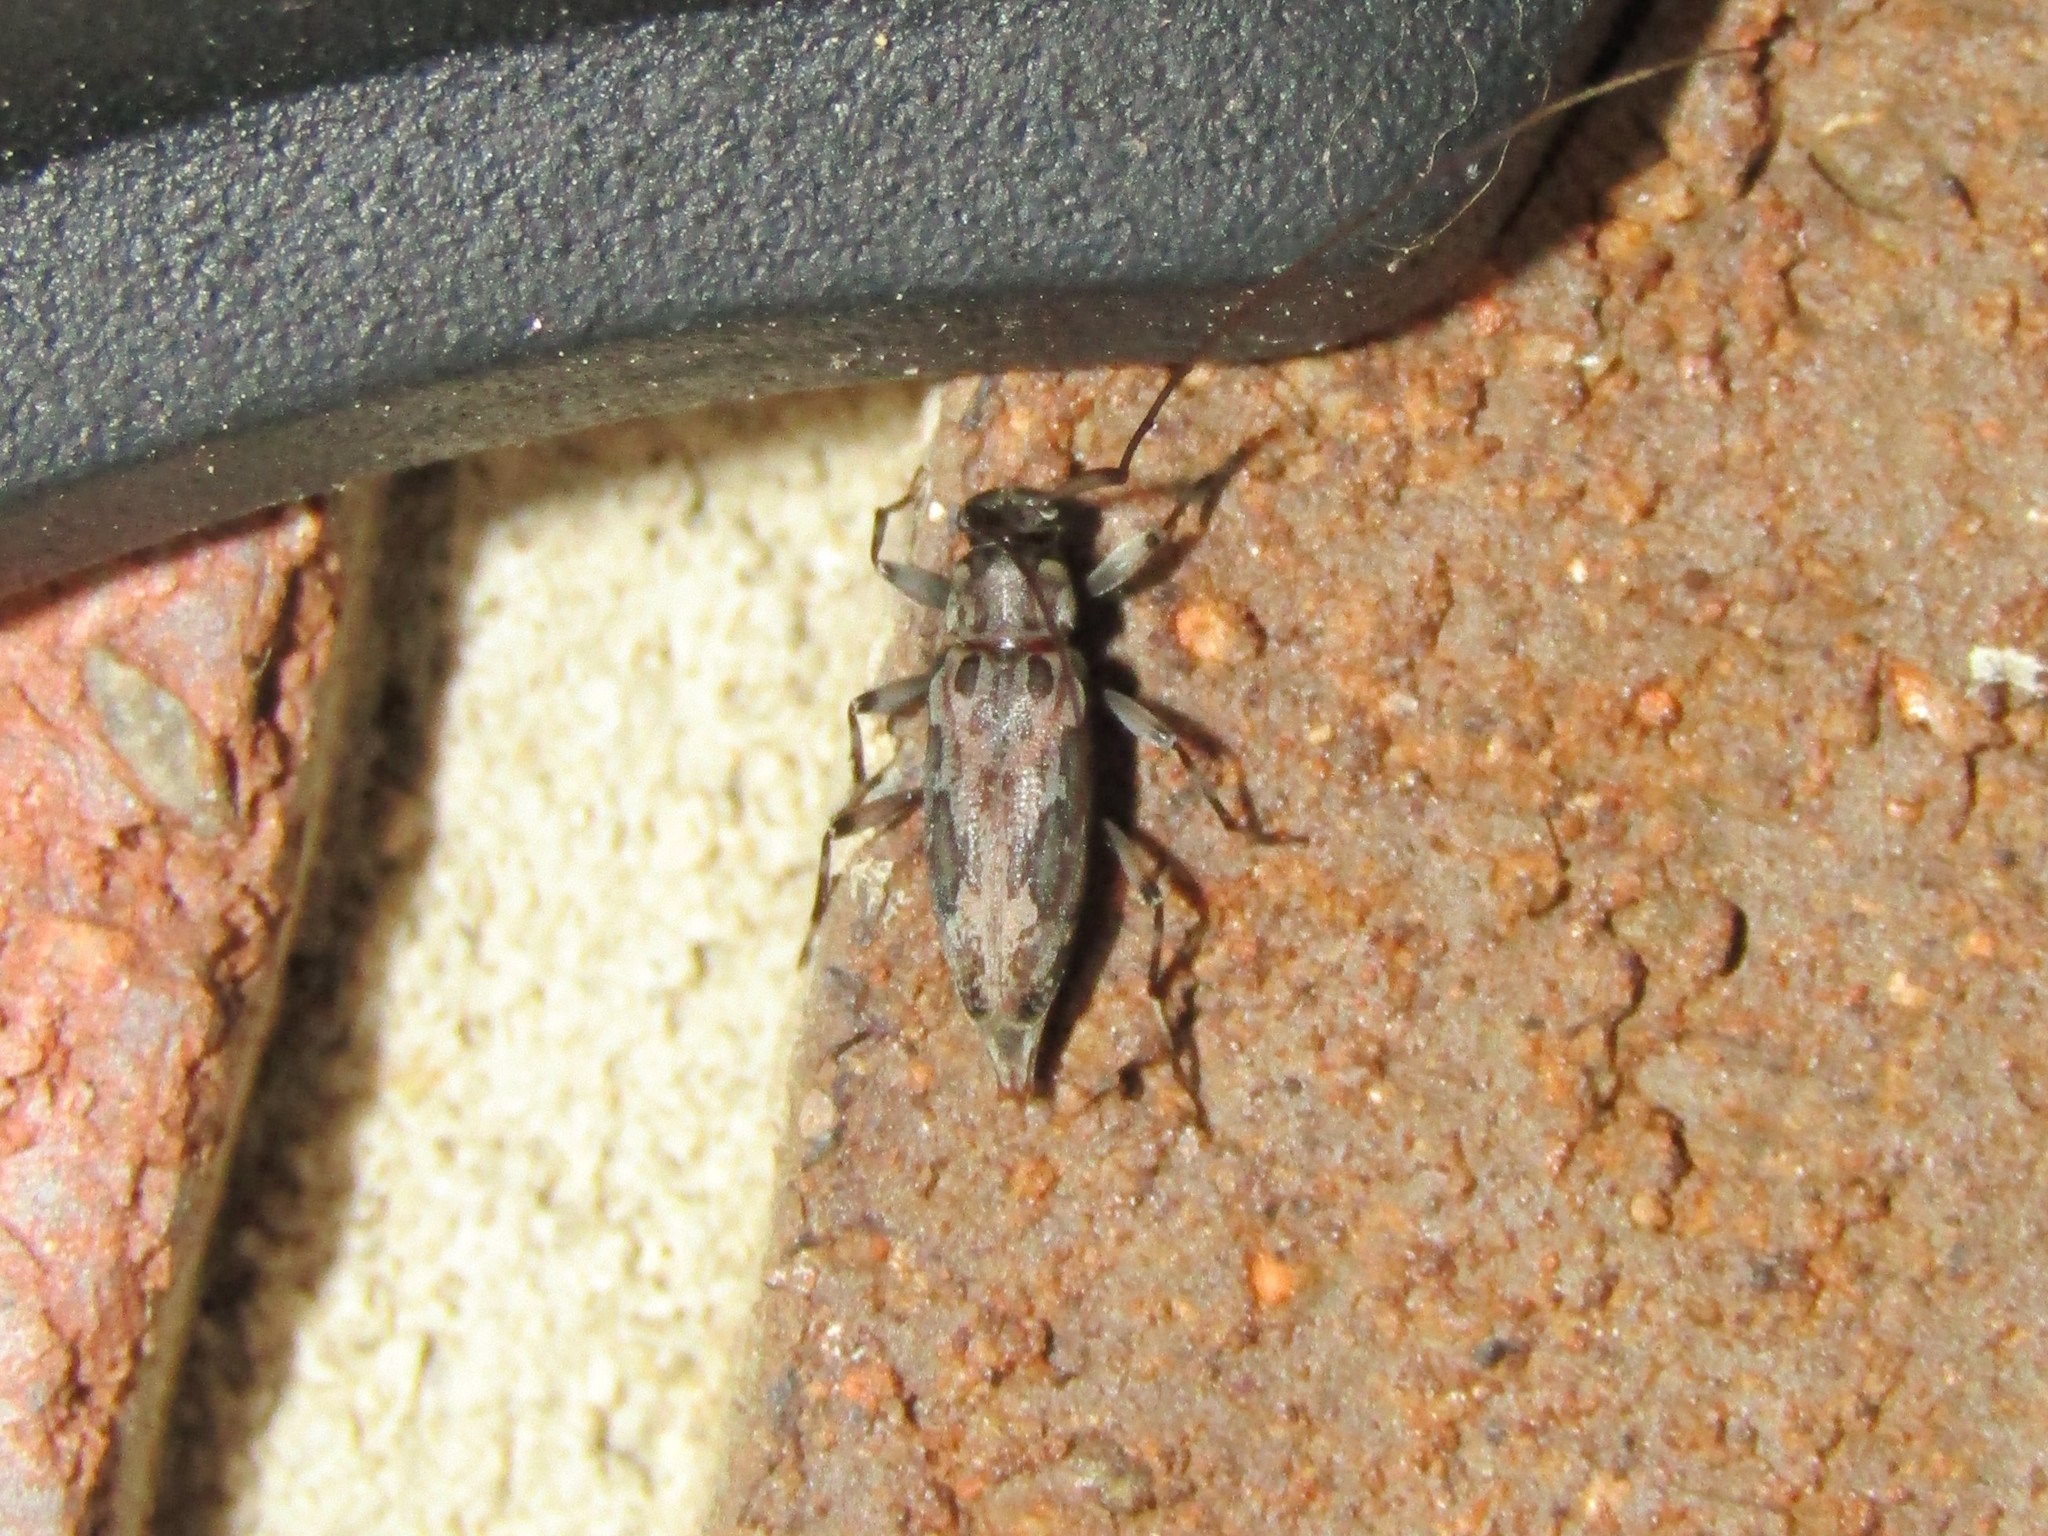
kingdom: Animalia
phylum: Arthropoda
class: Insecta
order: Coleoptera
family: Cerambycidae
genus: Lepturges
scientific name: Lepturges confluens
